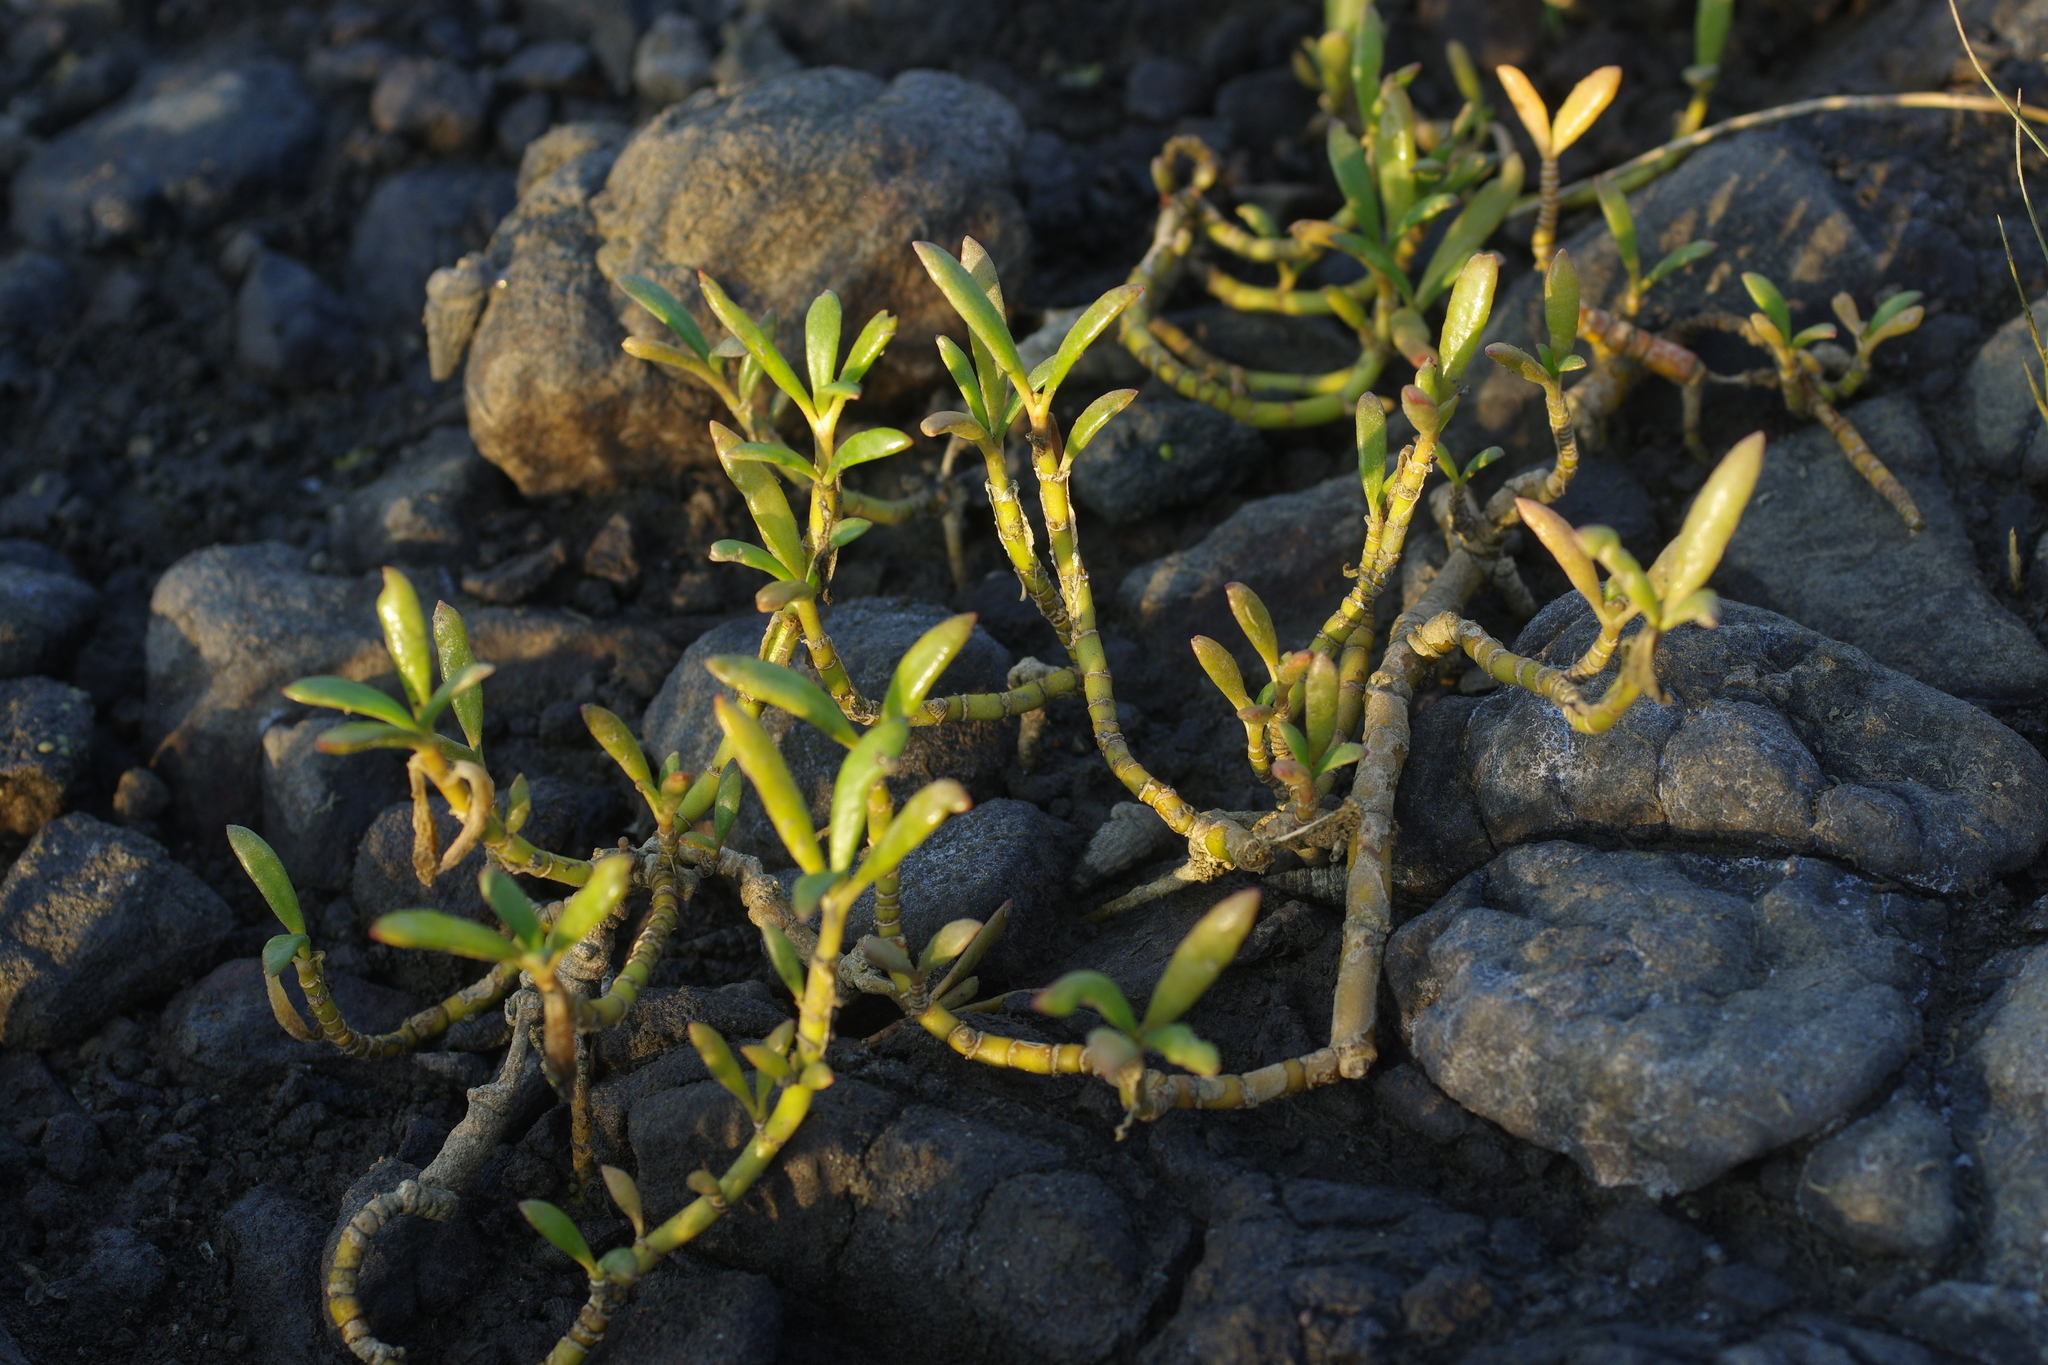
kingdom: Plantae
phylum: Tracheophyta
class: Magnoliopsida
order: Caryophyllales
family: Aizoaceae
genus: Sesuvium
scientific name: Sesuvium portulacastrum
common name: Sea-purslane
